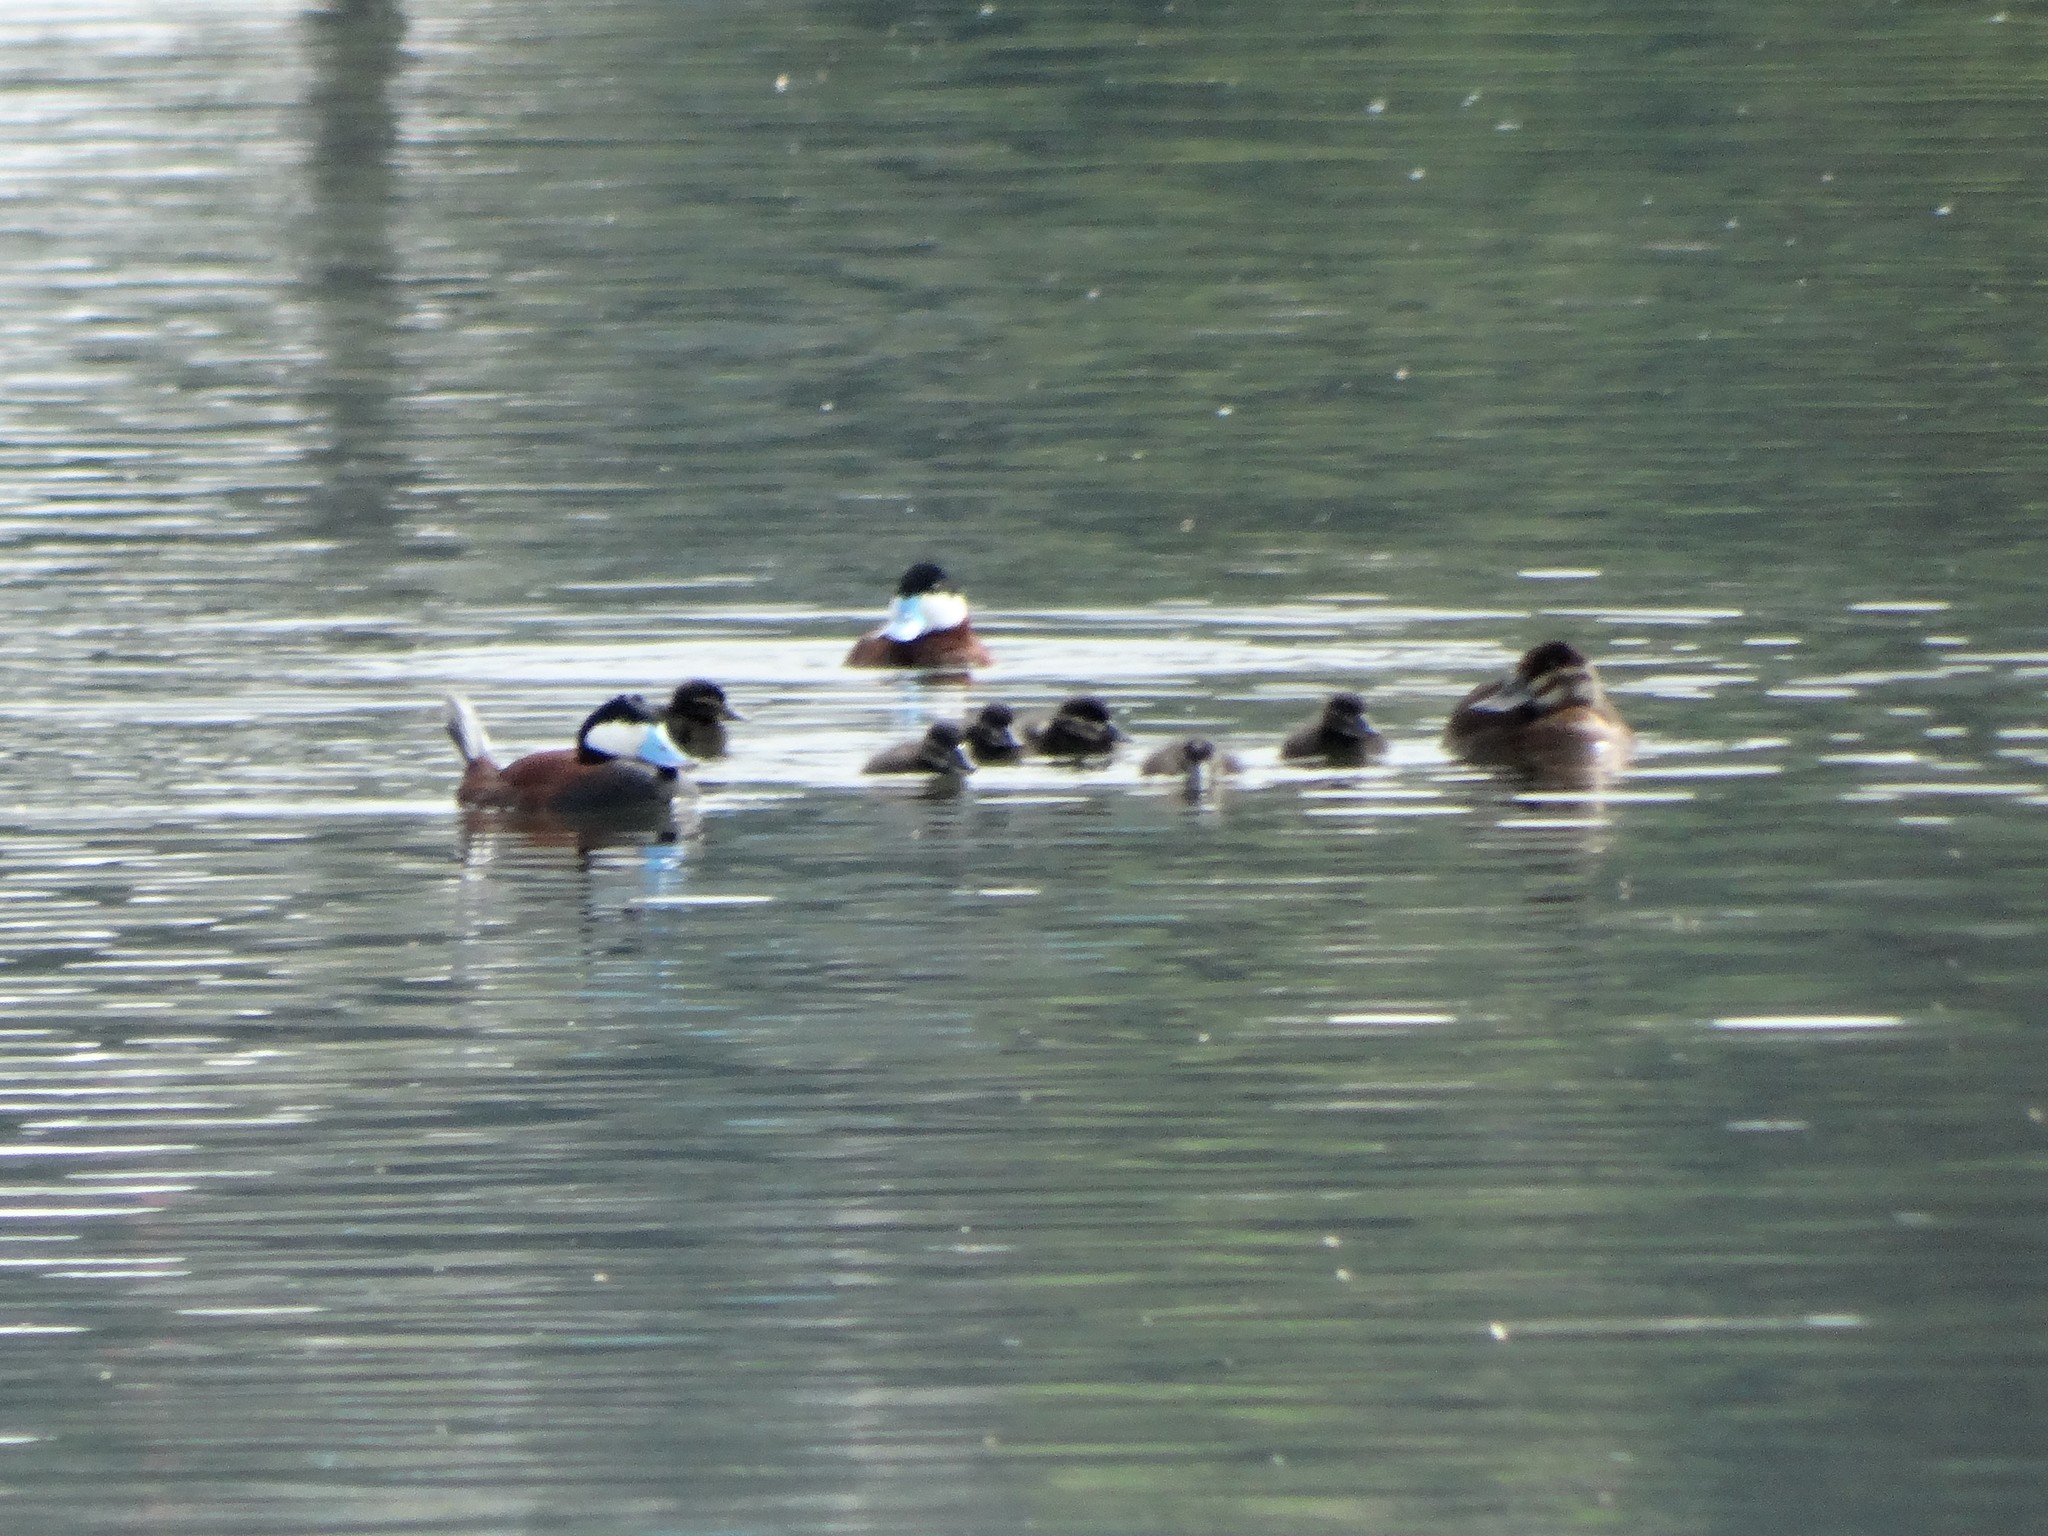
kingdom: Animalia
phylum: Chordata
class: Aves
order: Anseriformes
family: Anatidae
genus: Oxyura
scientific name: Oxyura jamaicensis
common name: Ruddy duck
